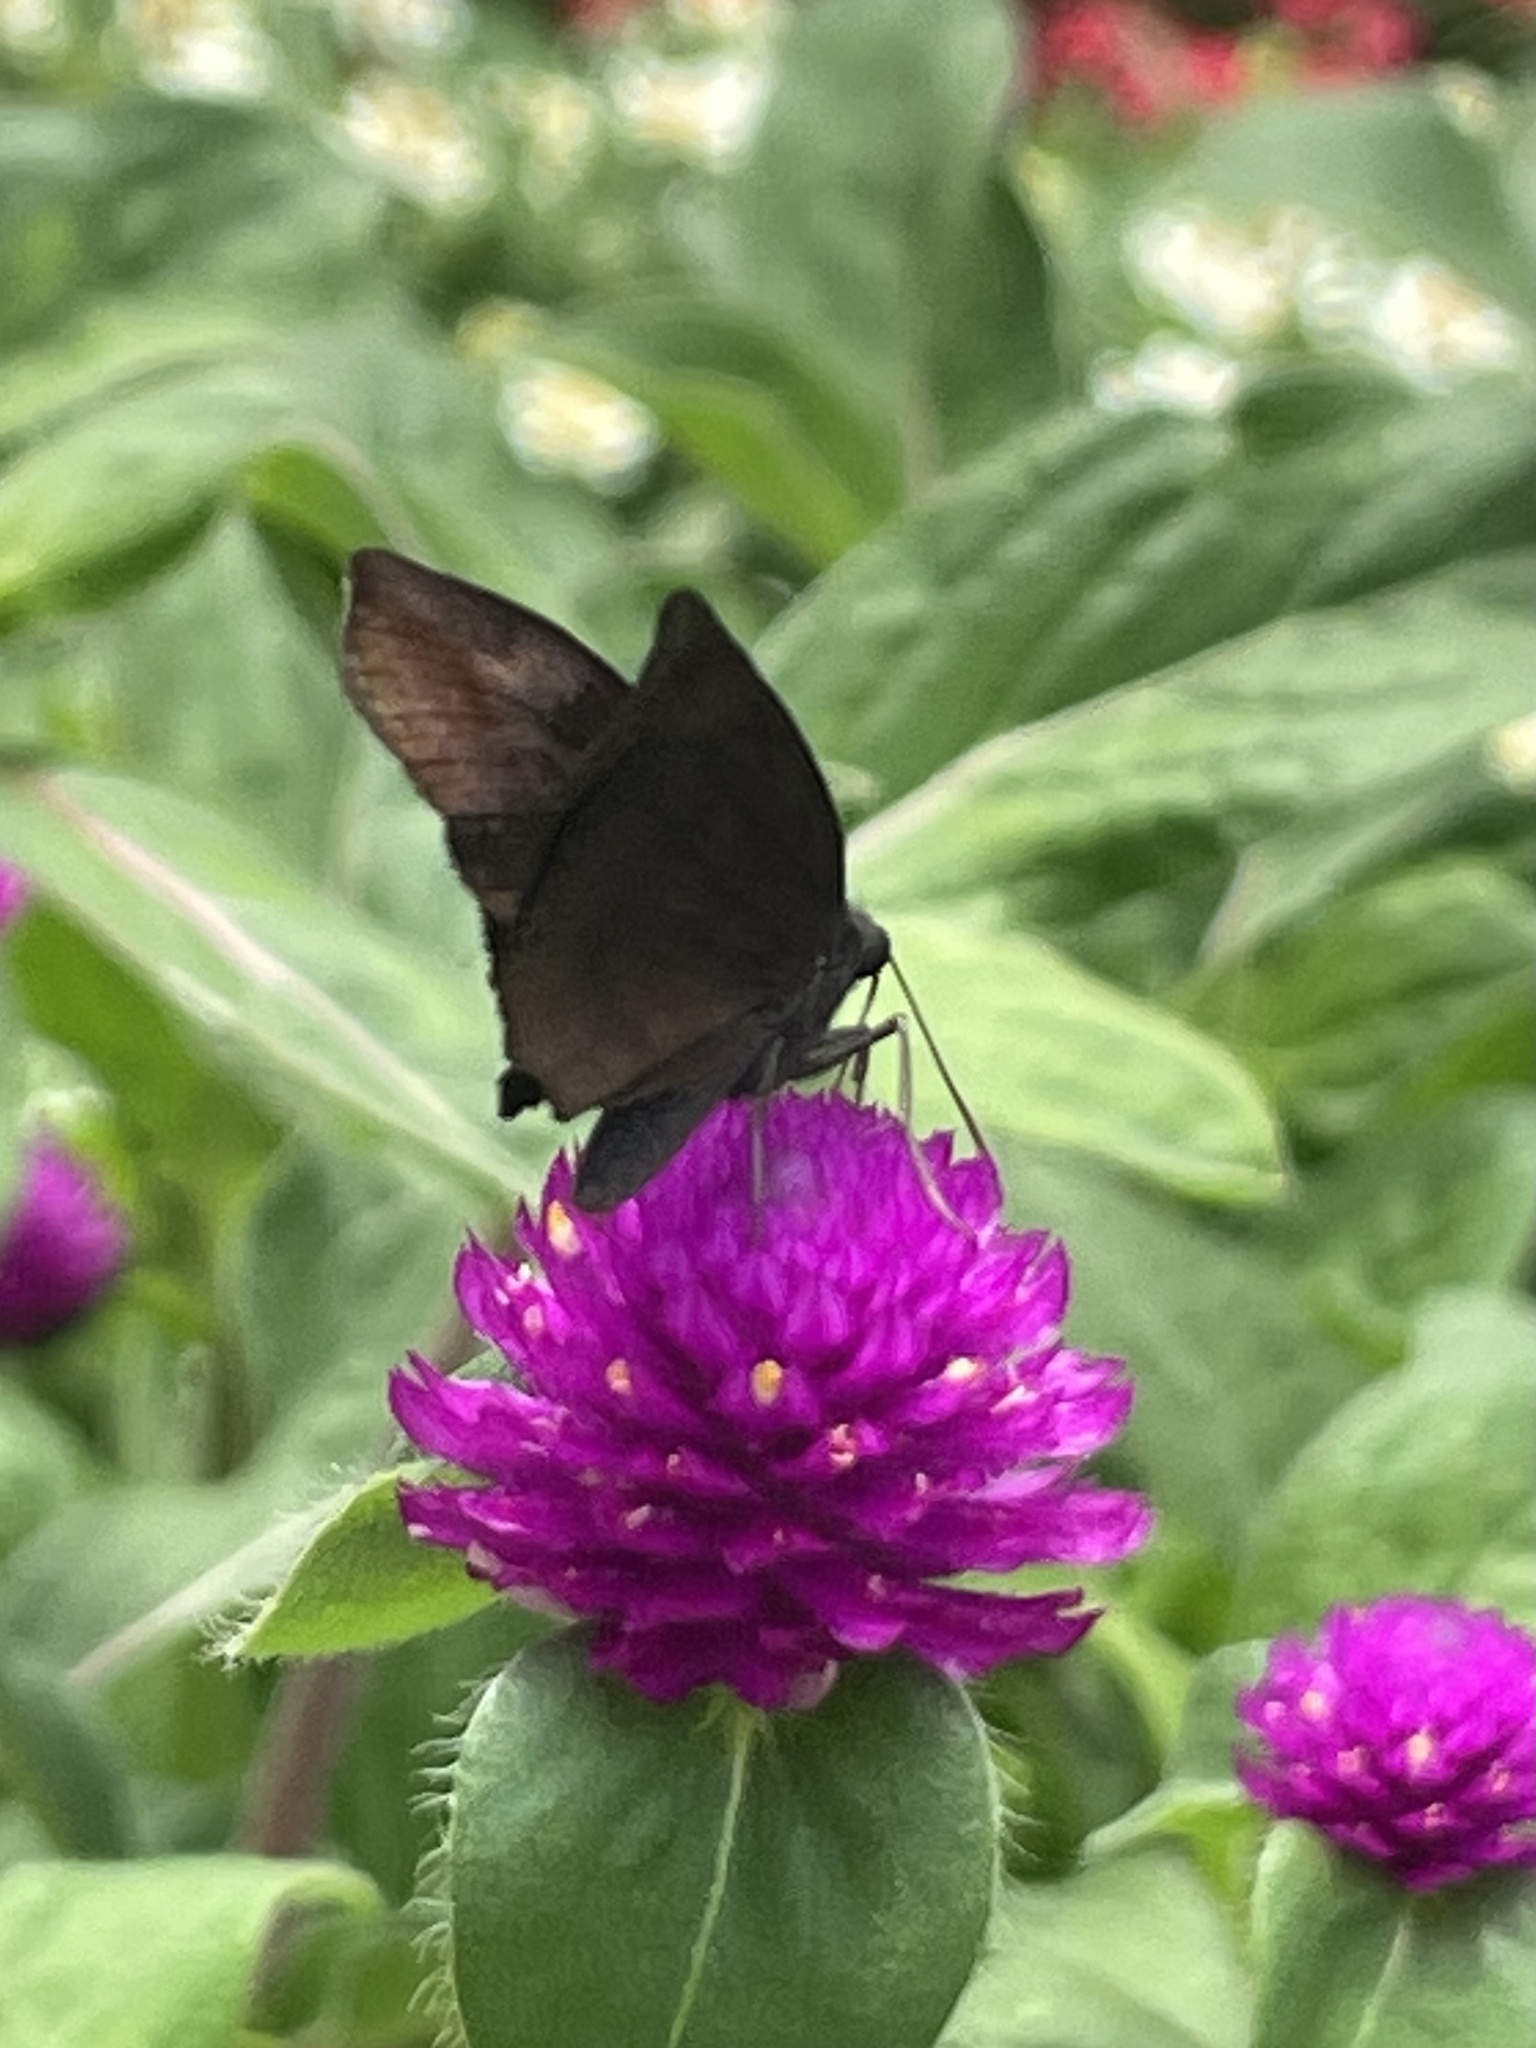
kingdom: Animalia
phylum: Arthropoda
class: Insecta
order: Lepidoptera
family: Hesperiidae
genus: Achlyodes
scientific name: Achlyodes thraso
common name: Sickle-winged skipper
